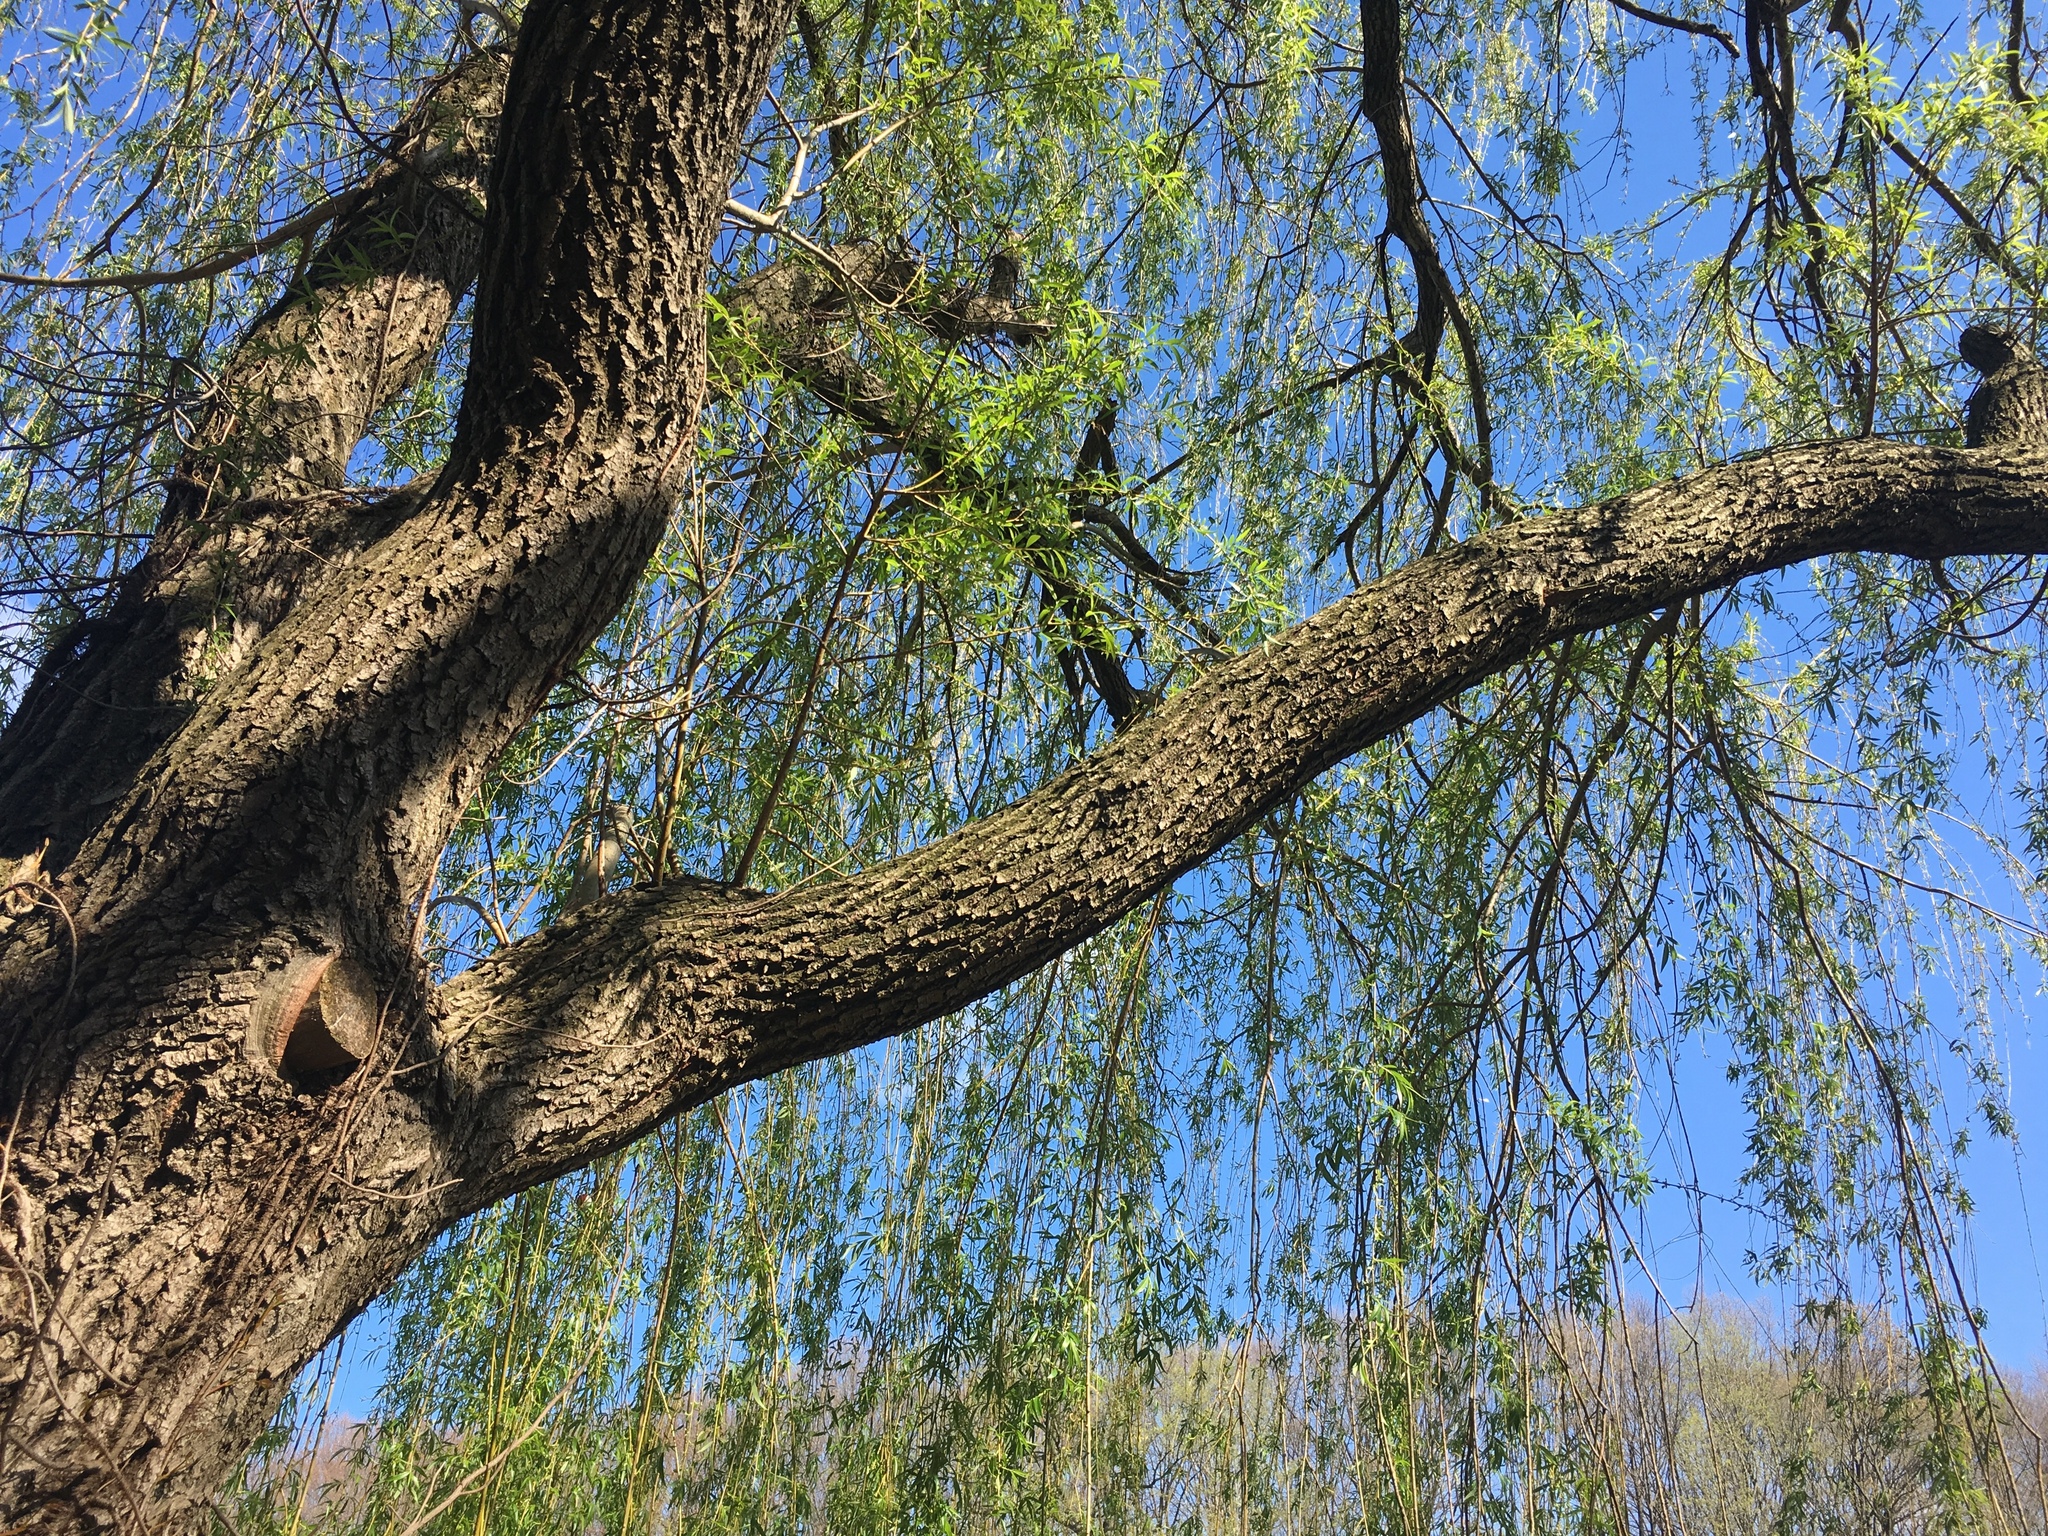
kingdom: Plantae
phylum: Tracheophyta
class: Magnoliopsida
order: Malpighiales
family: Salicaceae
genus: Salix
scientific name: Salix babylonica
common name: Weeping willow
